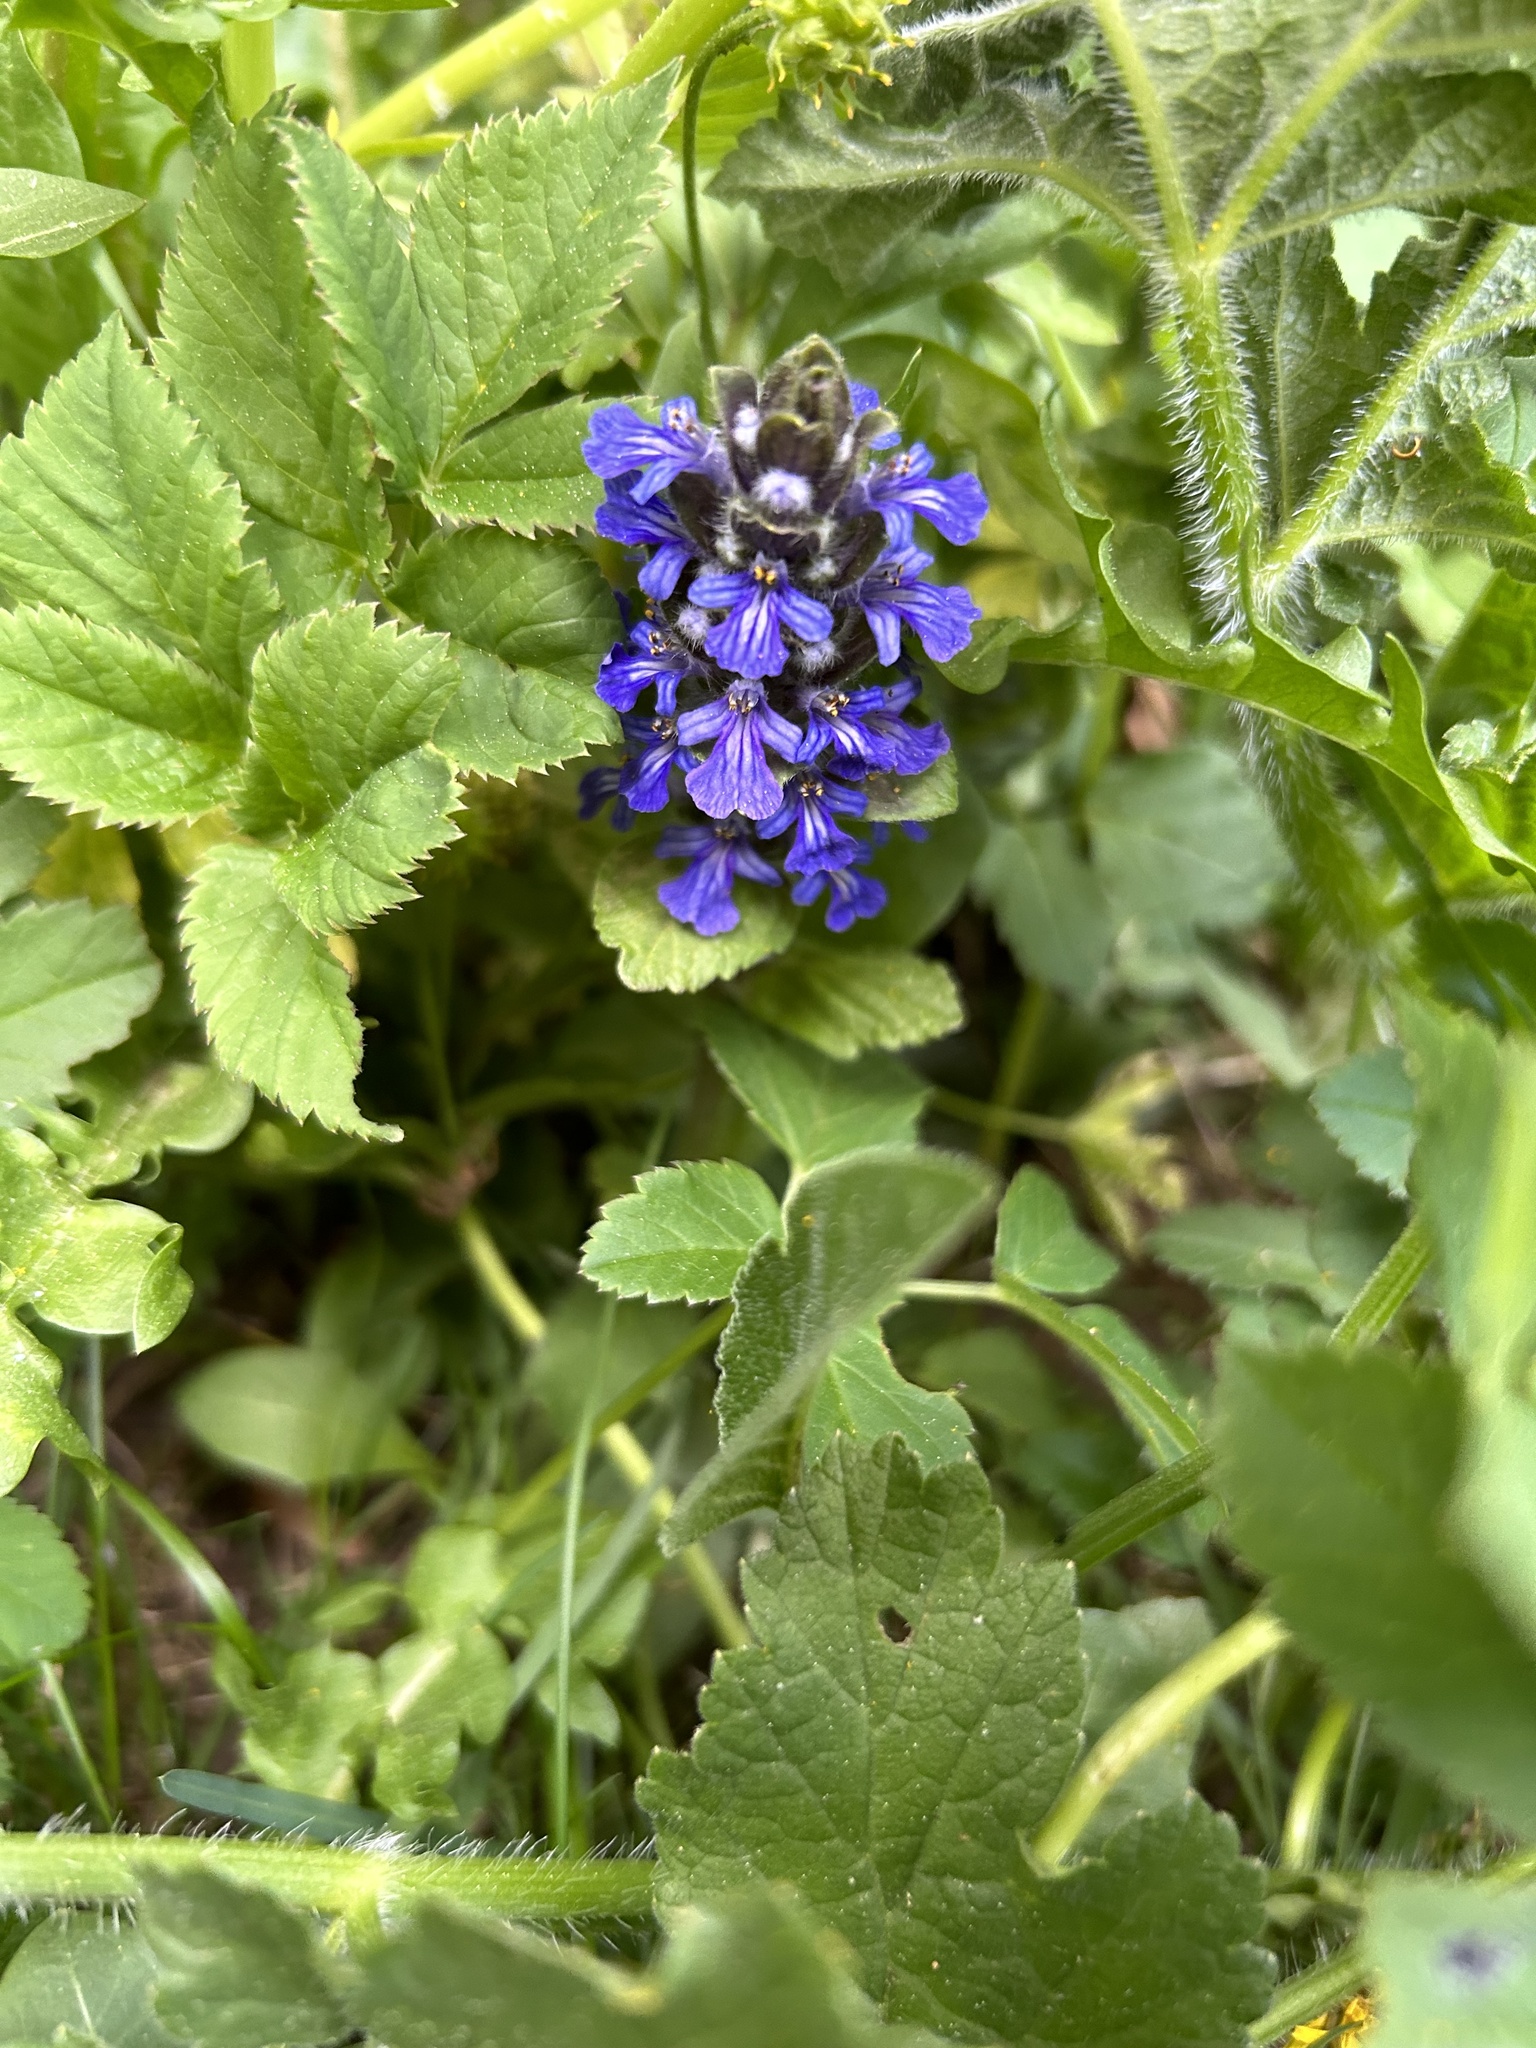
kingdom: Plantae
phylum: Tracheophyta
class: Magnoliopsida
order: Lamiales
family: Lamiaceae
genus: Ajuga
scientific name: Ajuga reptans
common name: Bugle
